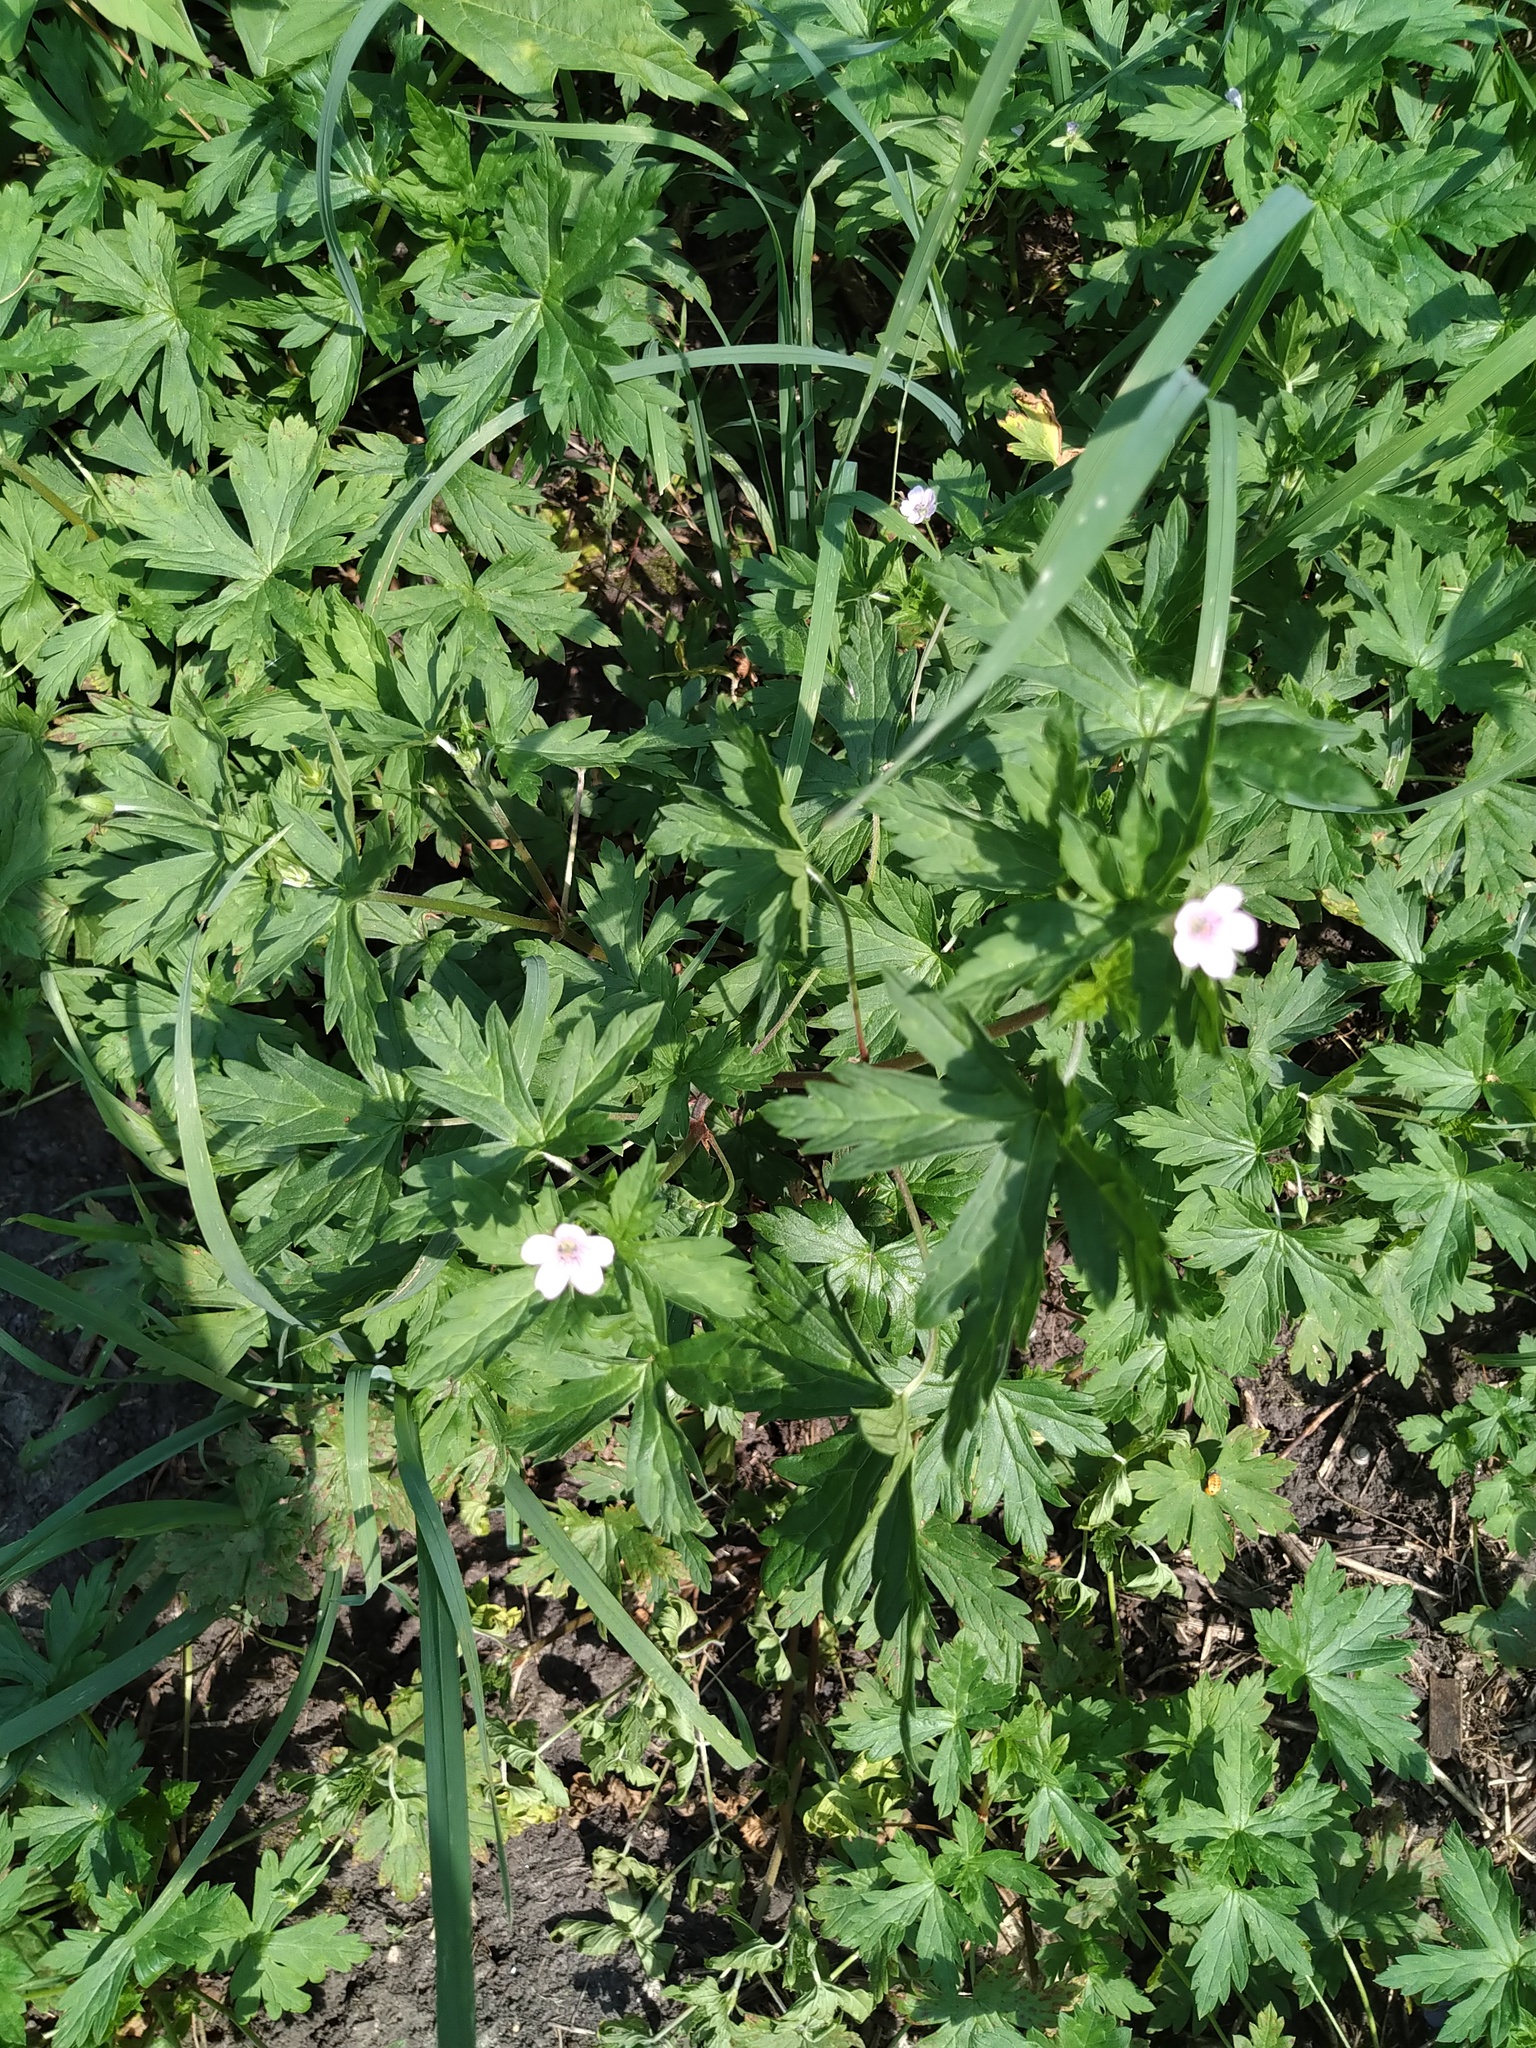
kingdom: Plantae
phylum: Tracheophyta
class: Magnoliopsida
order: Geraniales
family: Geraniaceae
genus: Geranium
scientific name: Geranium sibiricum
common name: Siberian crane's-bill
